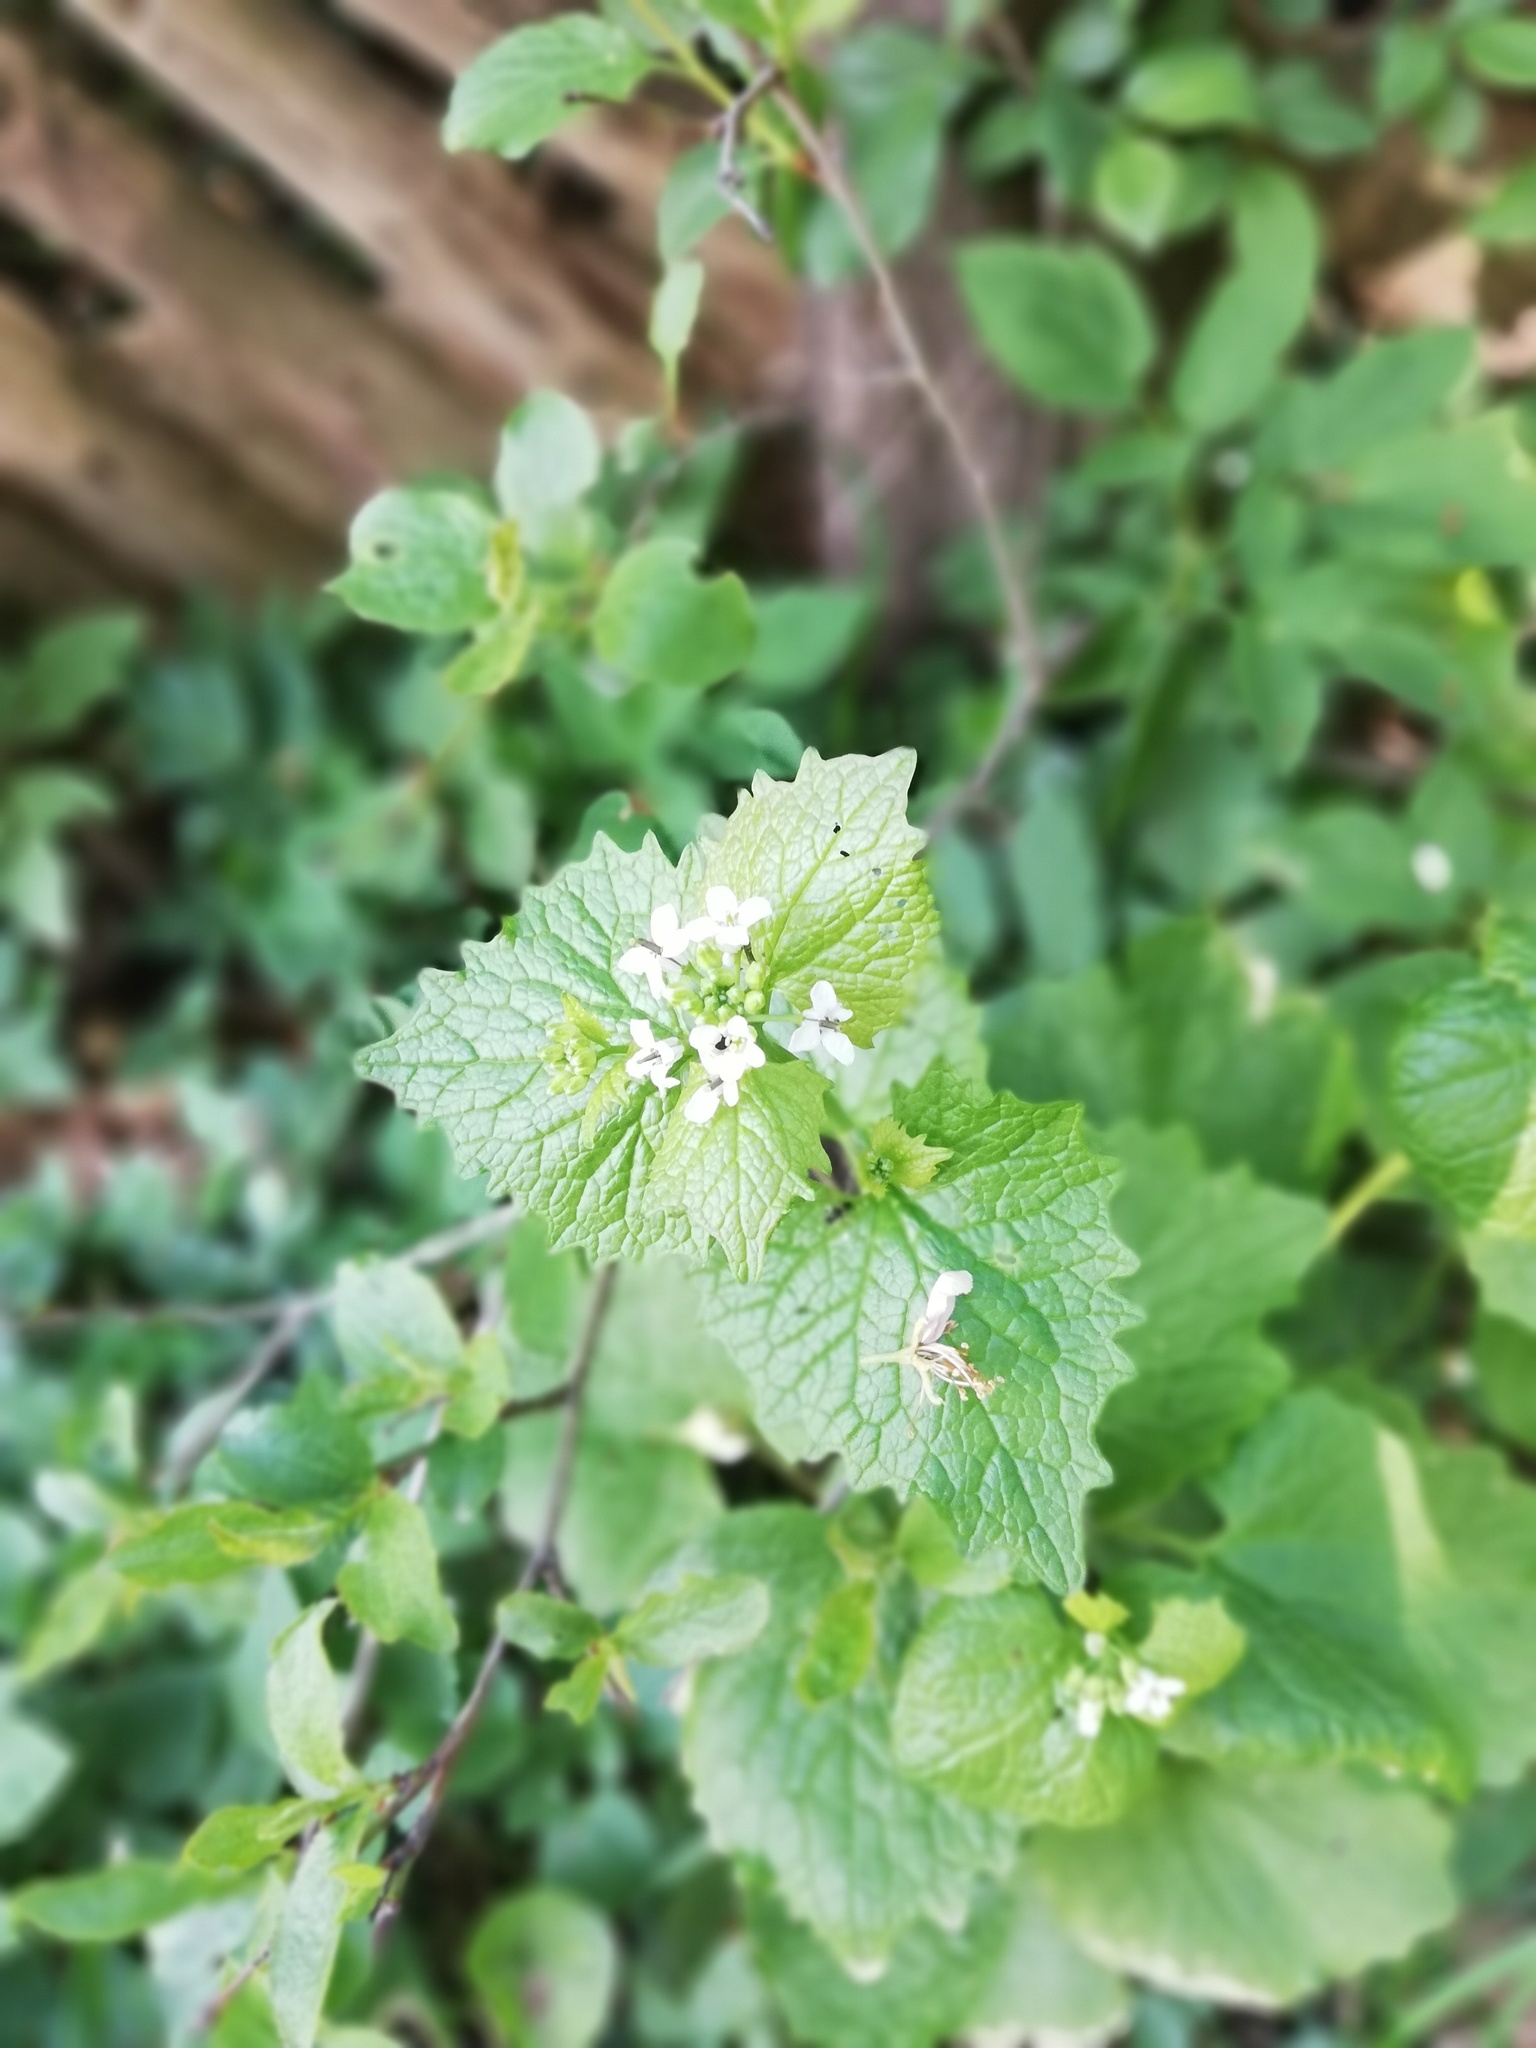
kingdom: Plantae
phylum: Tracheophyta
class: Magnoliopsida
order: Brassicales
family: Brassicaceae
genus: Alliaria
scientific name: Alliaria petiolata
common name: Garlic mustard
